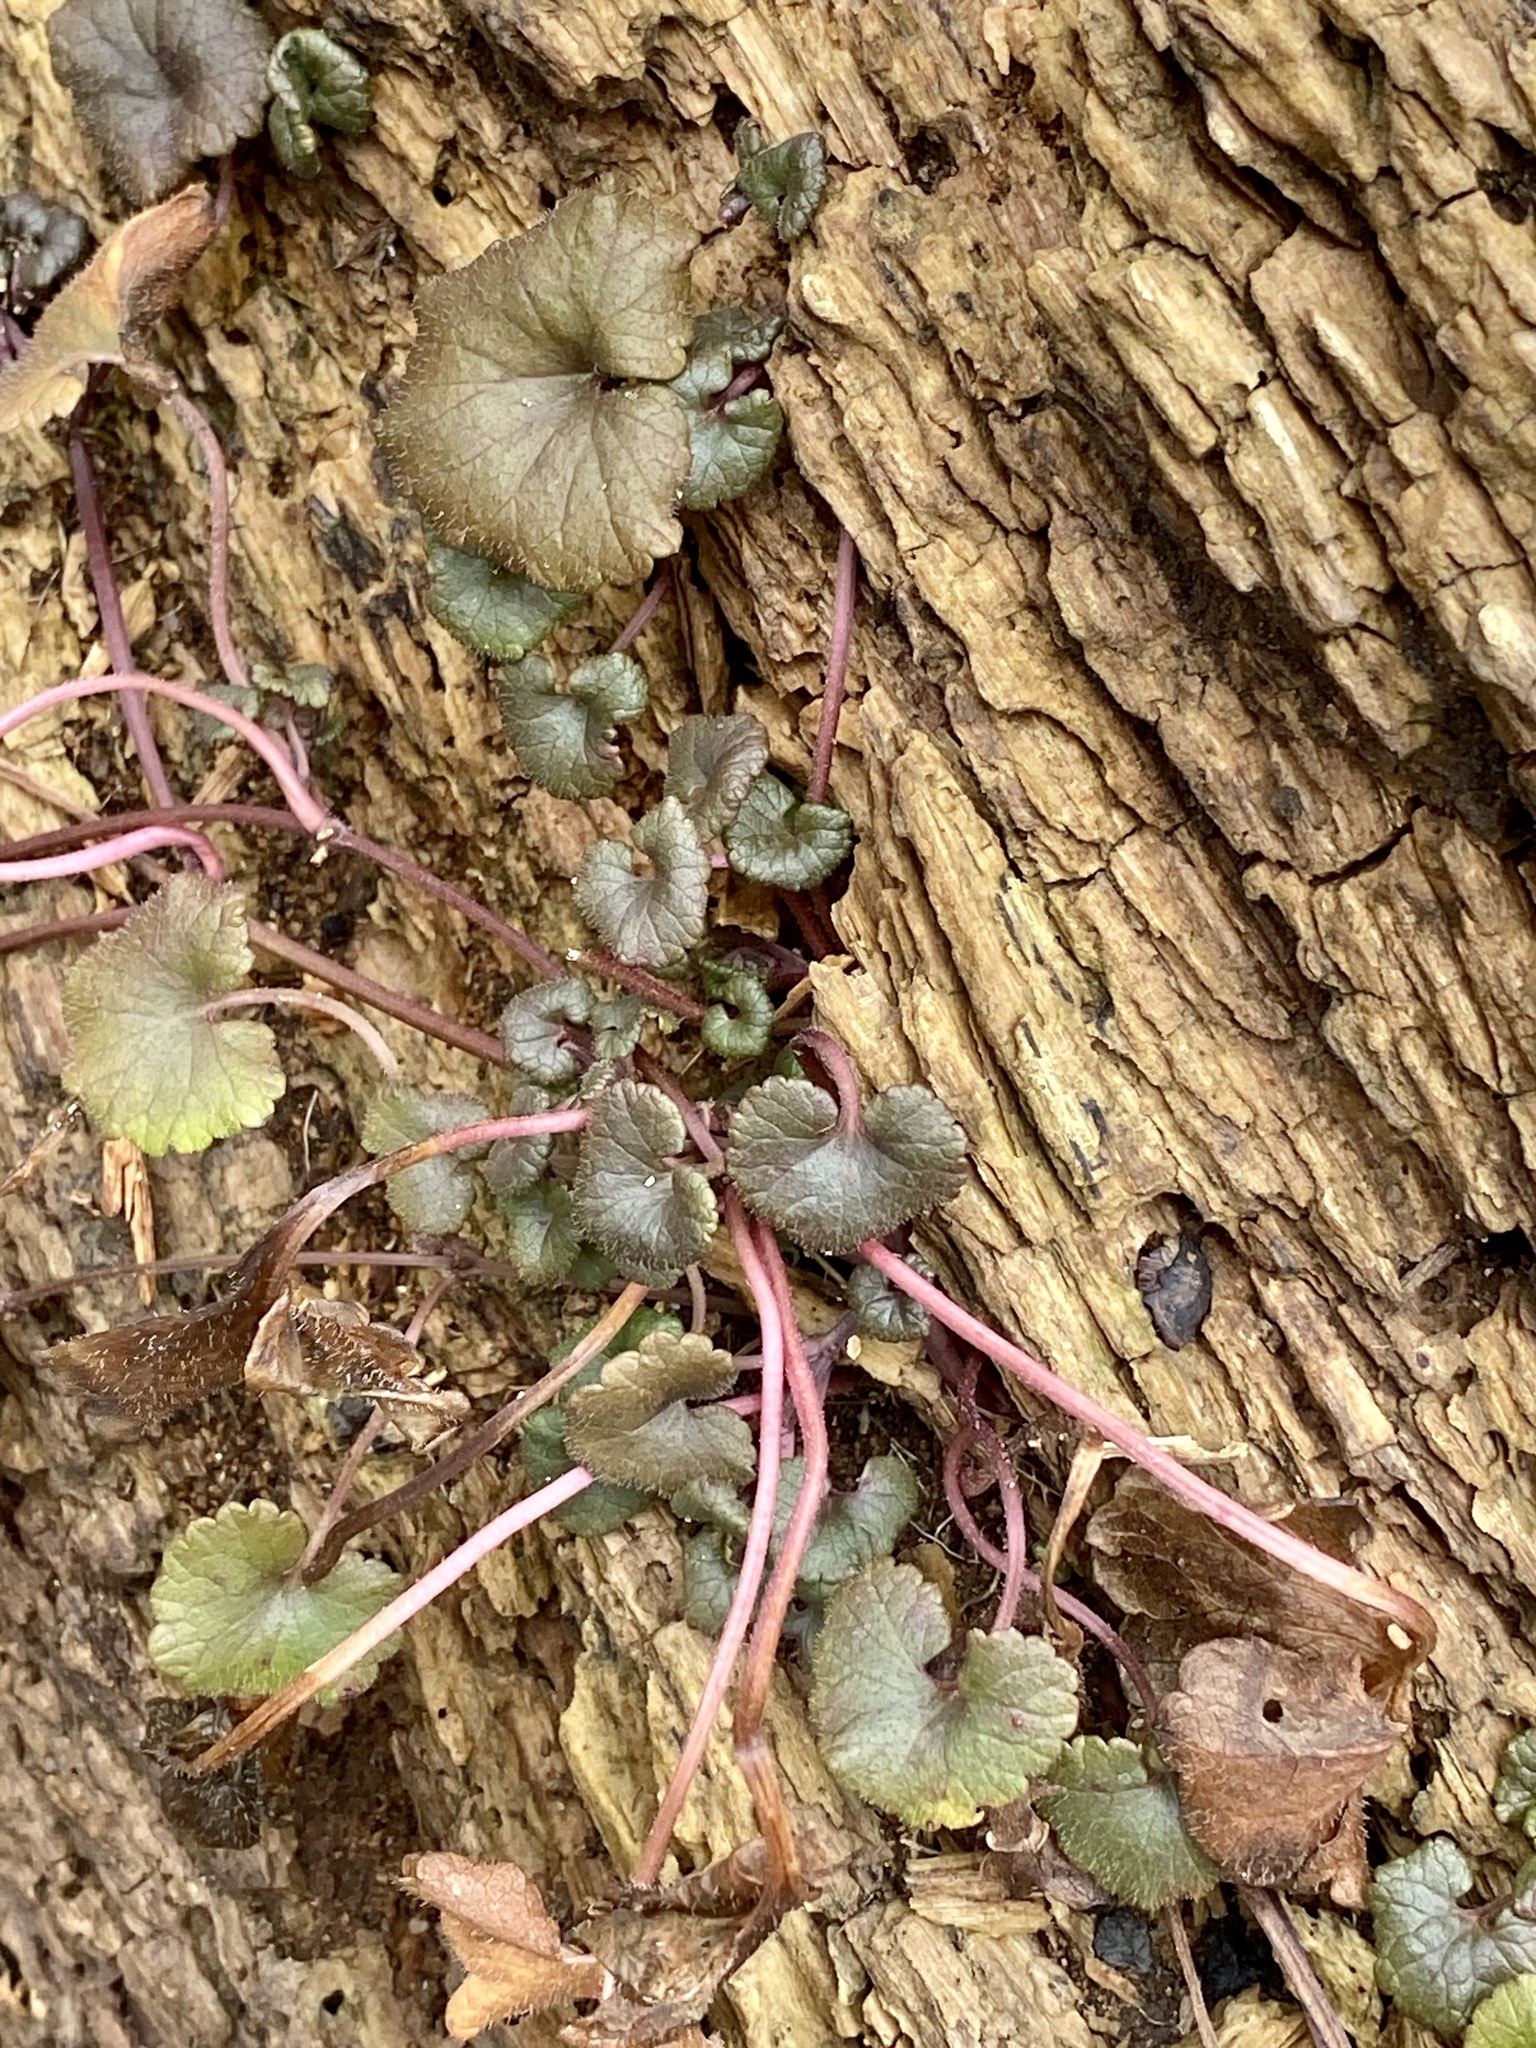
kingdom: Plantae
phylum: Tracheophyta
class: Magnoliopsida
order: Lamiales
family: Lamiaceae
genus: Glechoma
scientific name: Glechoma hederacea
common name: Ground ivy
